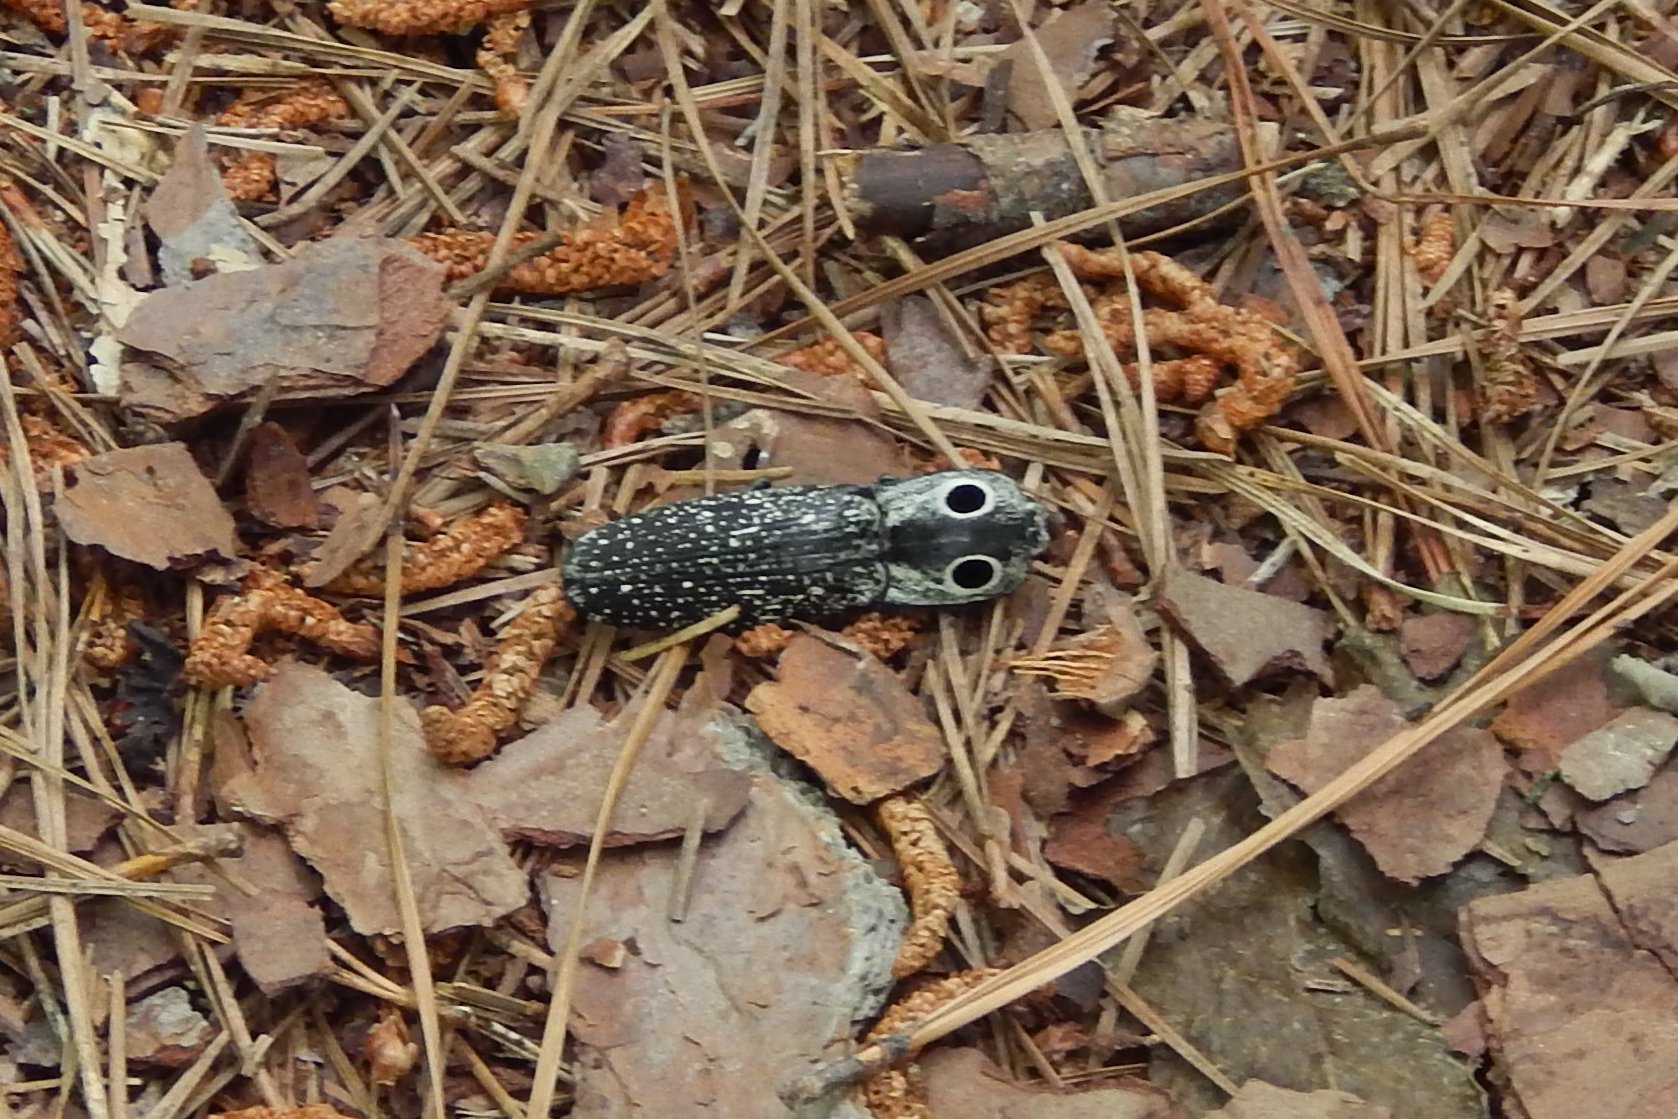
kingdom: Animalia
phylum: Arthropoda
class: Insecta
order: Coleoptera
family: Elateridae
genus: Alaus
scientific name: Alaus oculatus
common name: Eastern eyed click beetle
